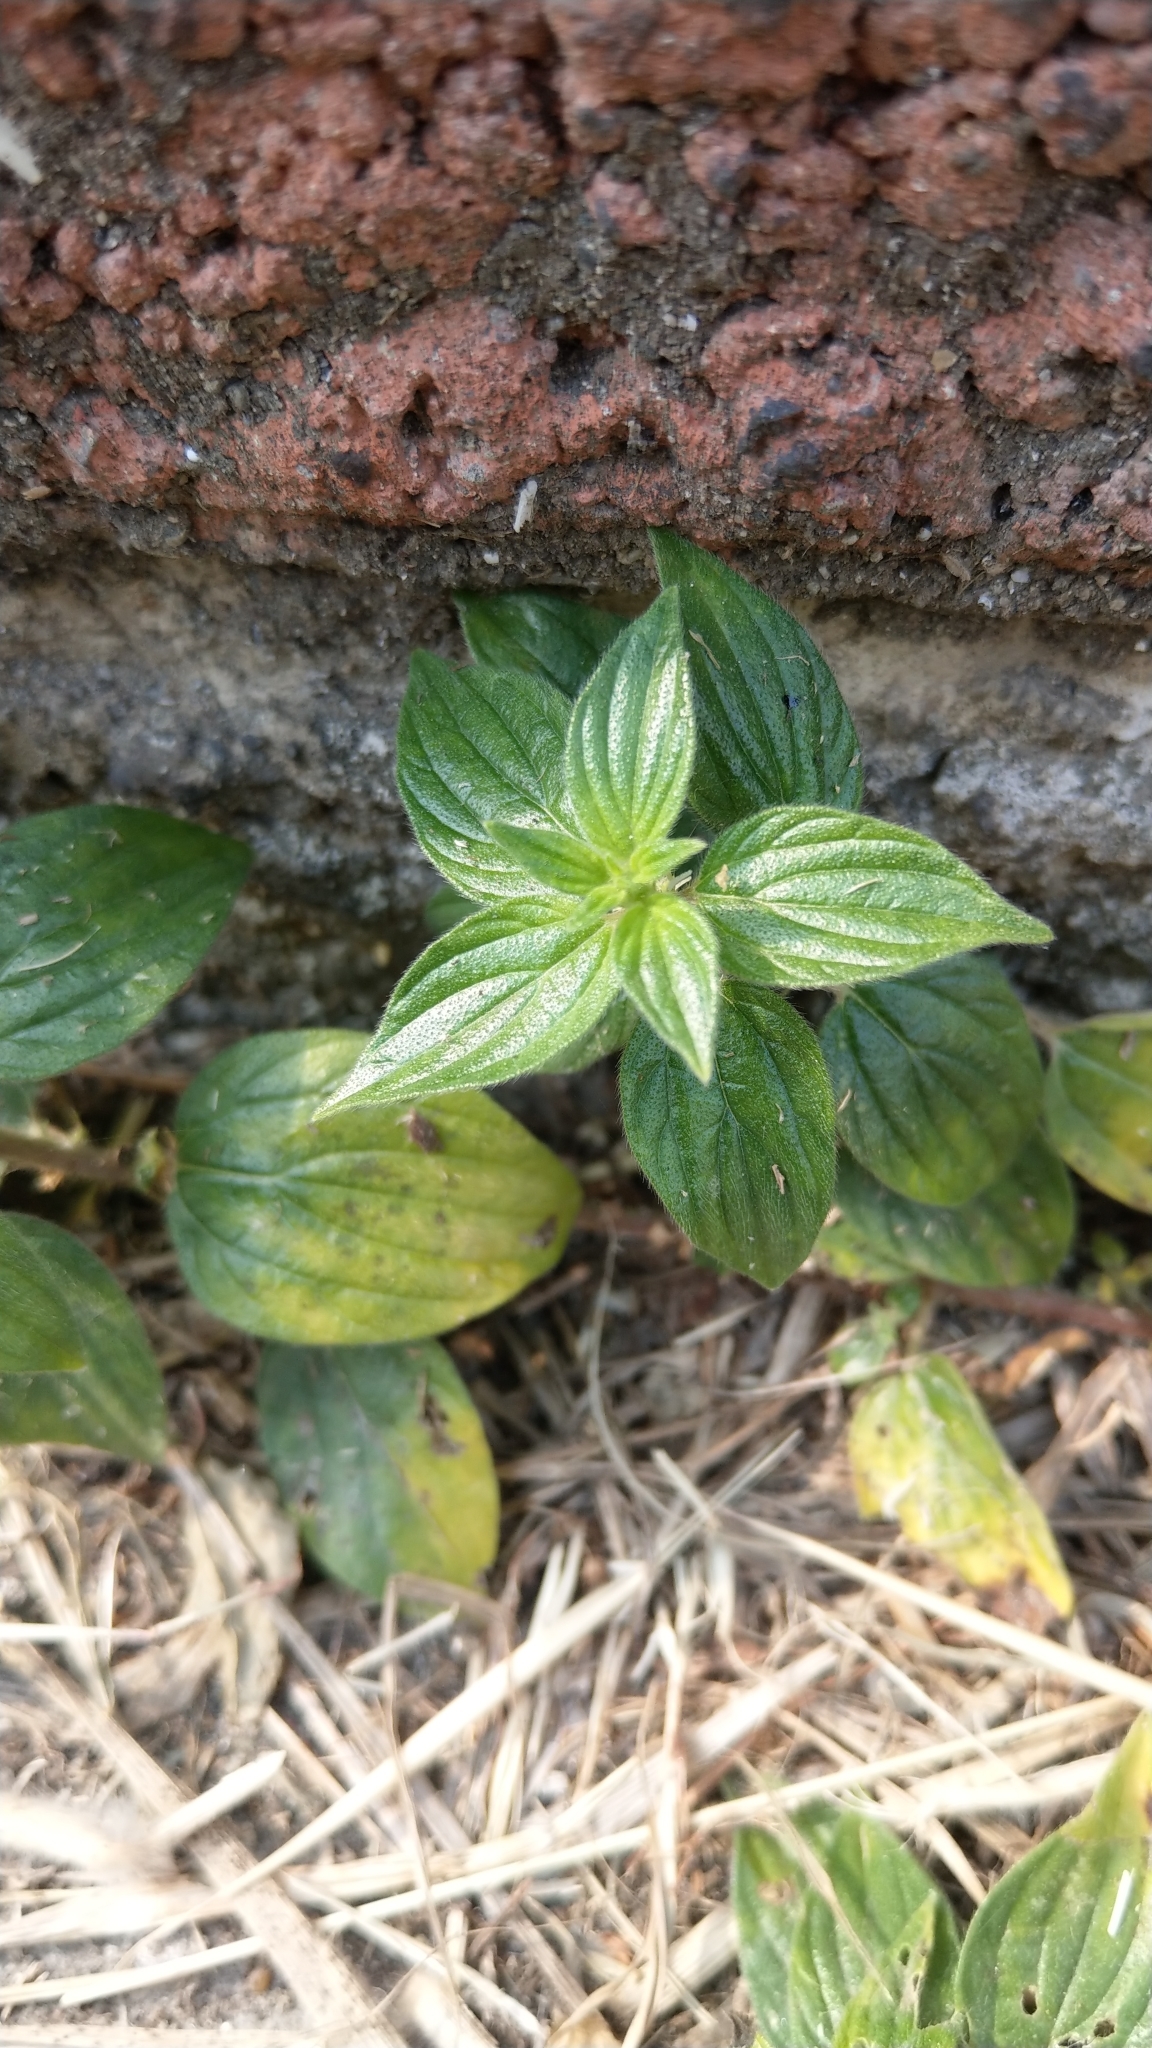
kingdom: Plantae
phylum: Tracheophyta
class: Magnoliopsida
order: Rosales
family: Urticaceae
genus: Pouzolzia
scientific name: Pouzolzia zeylanica
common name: Graceful pouzolzsbush
